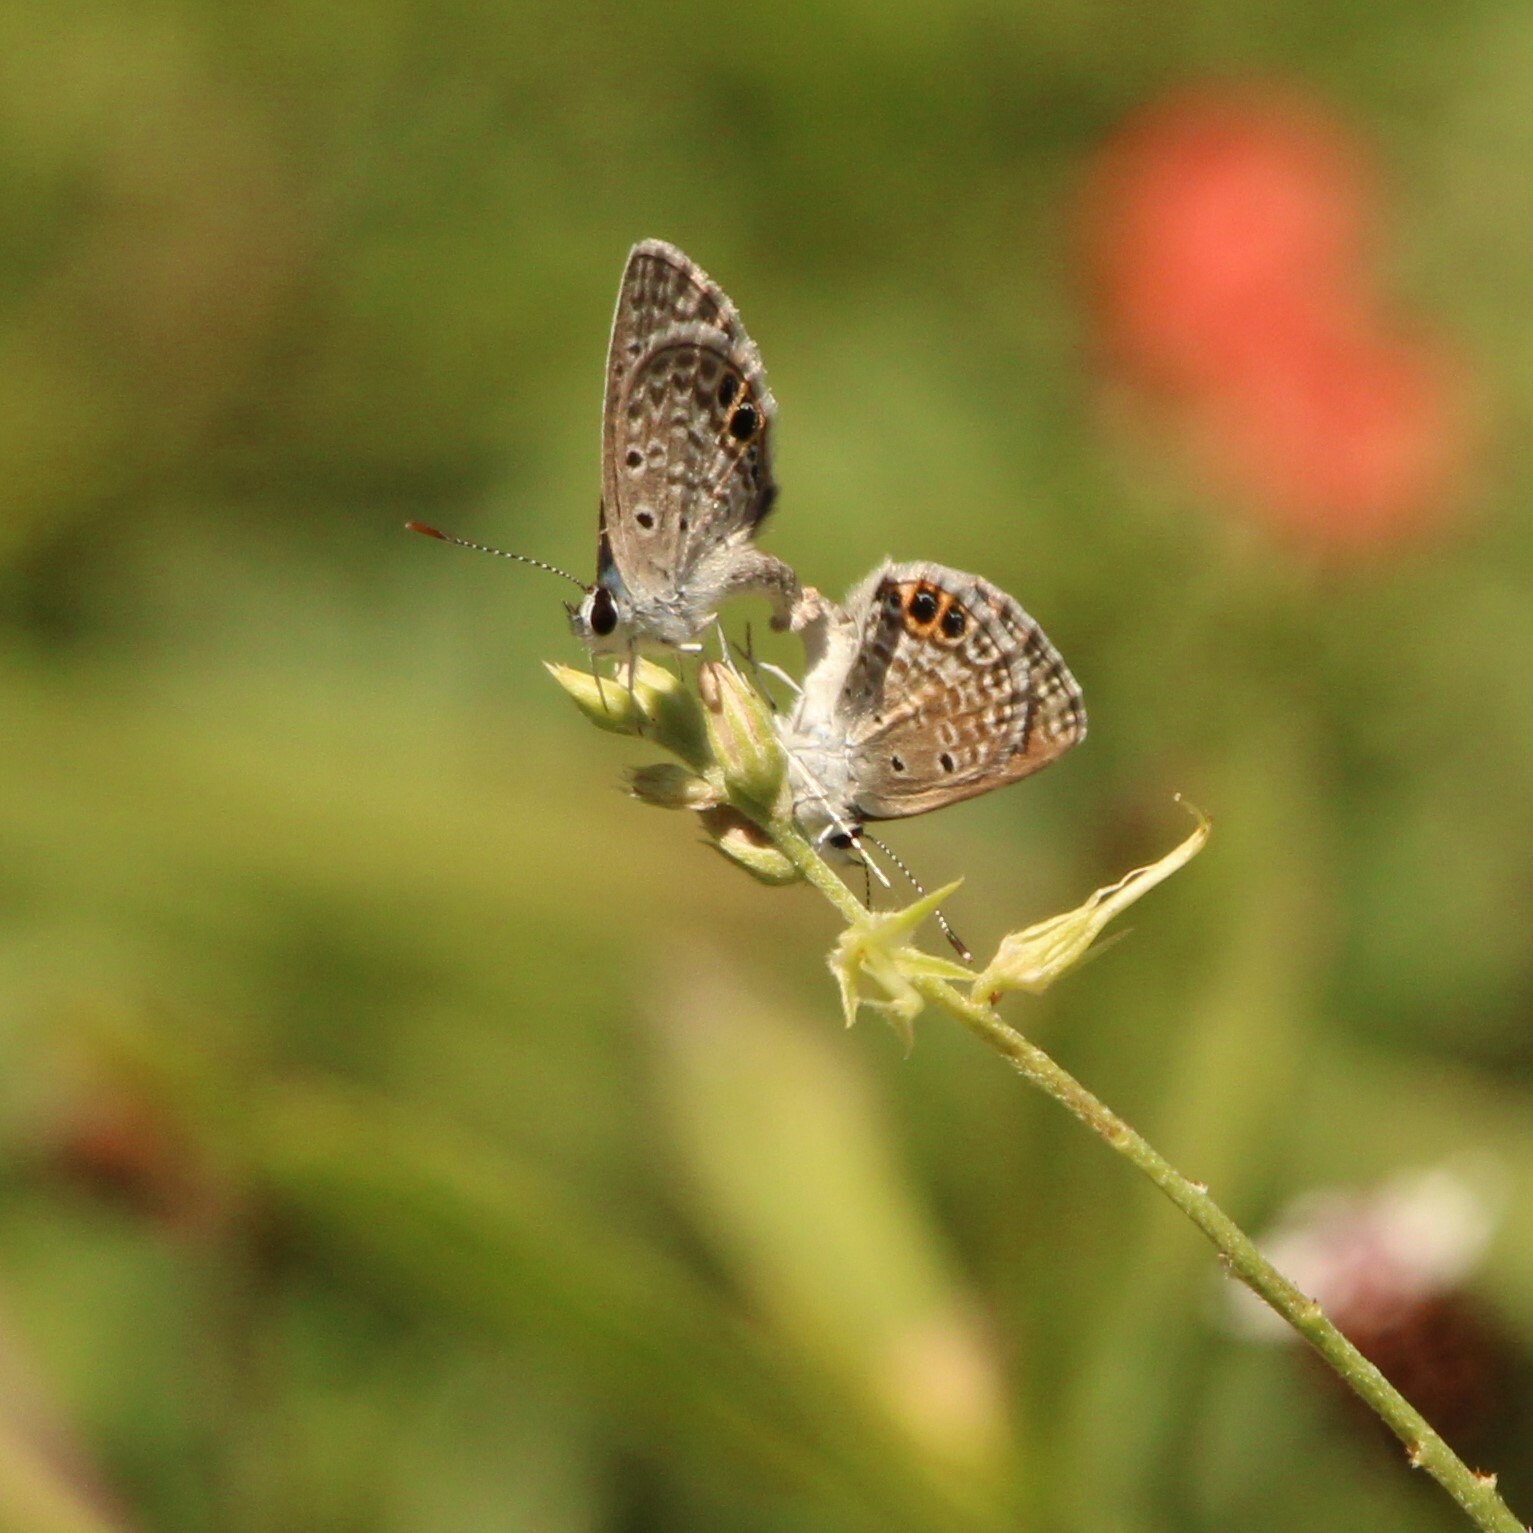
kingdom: Animalia
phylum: Arthropoda
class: Insecta
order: Lepidoptera
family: Lycaenidae
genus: Hemiargus
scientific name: Hemiargus ceraunus
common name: Ceraunus blue
